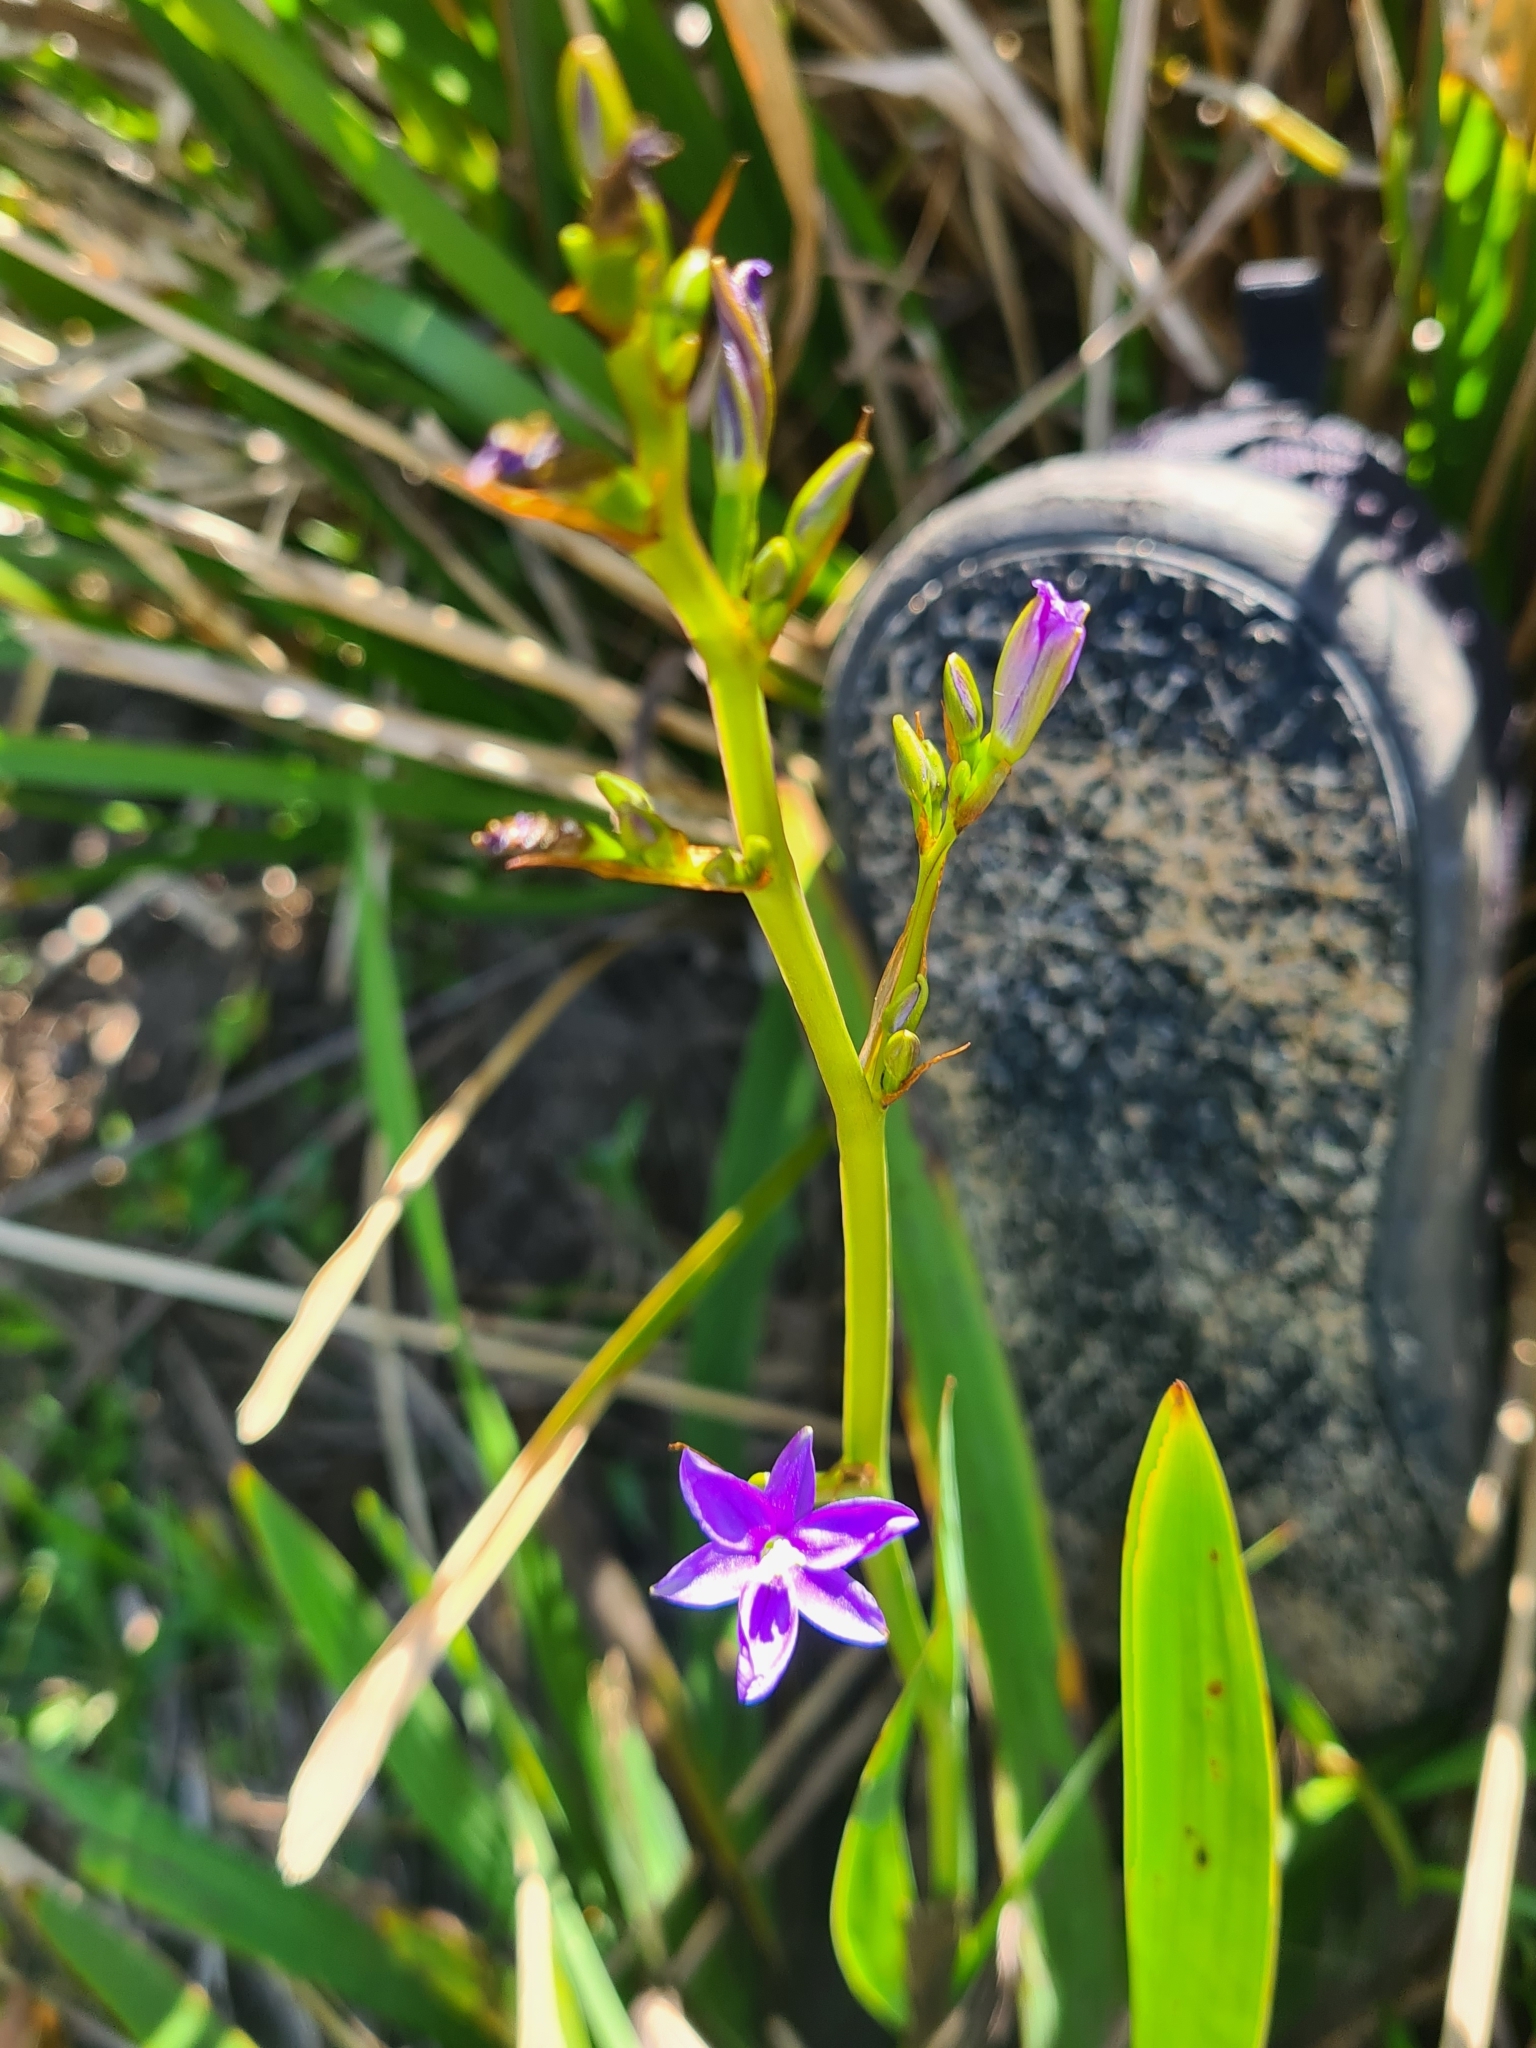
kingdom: Plantae
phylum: Tracheophyta
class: Liliopsida
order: Asparagales
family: Iridaceae
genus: Aristea
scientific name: Aristea ecklonii
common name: Blue corn-lily
